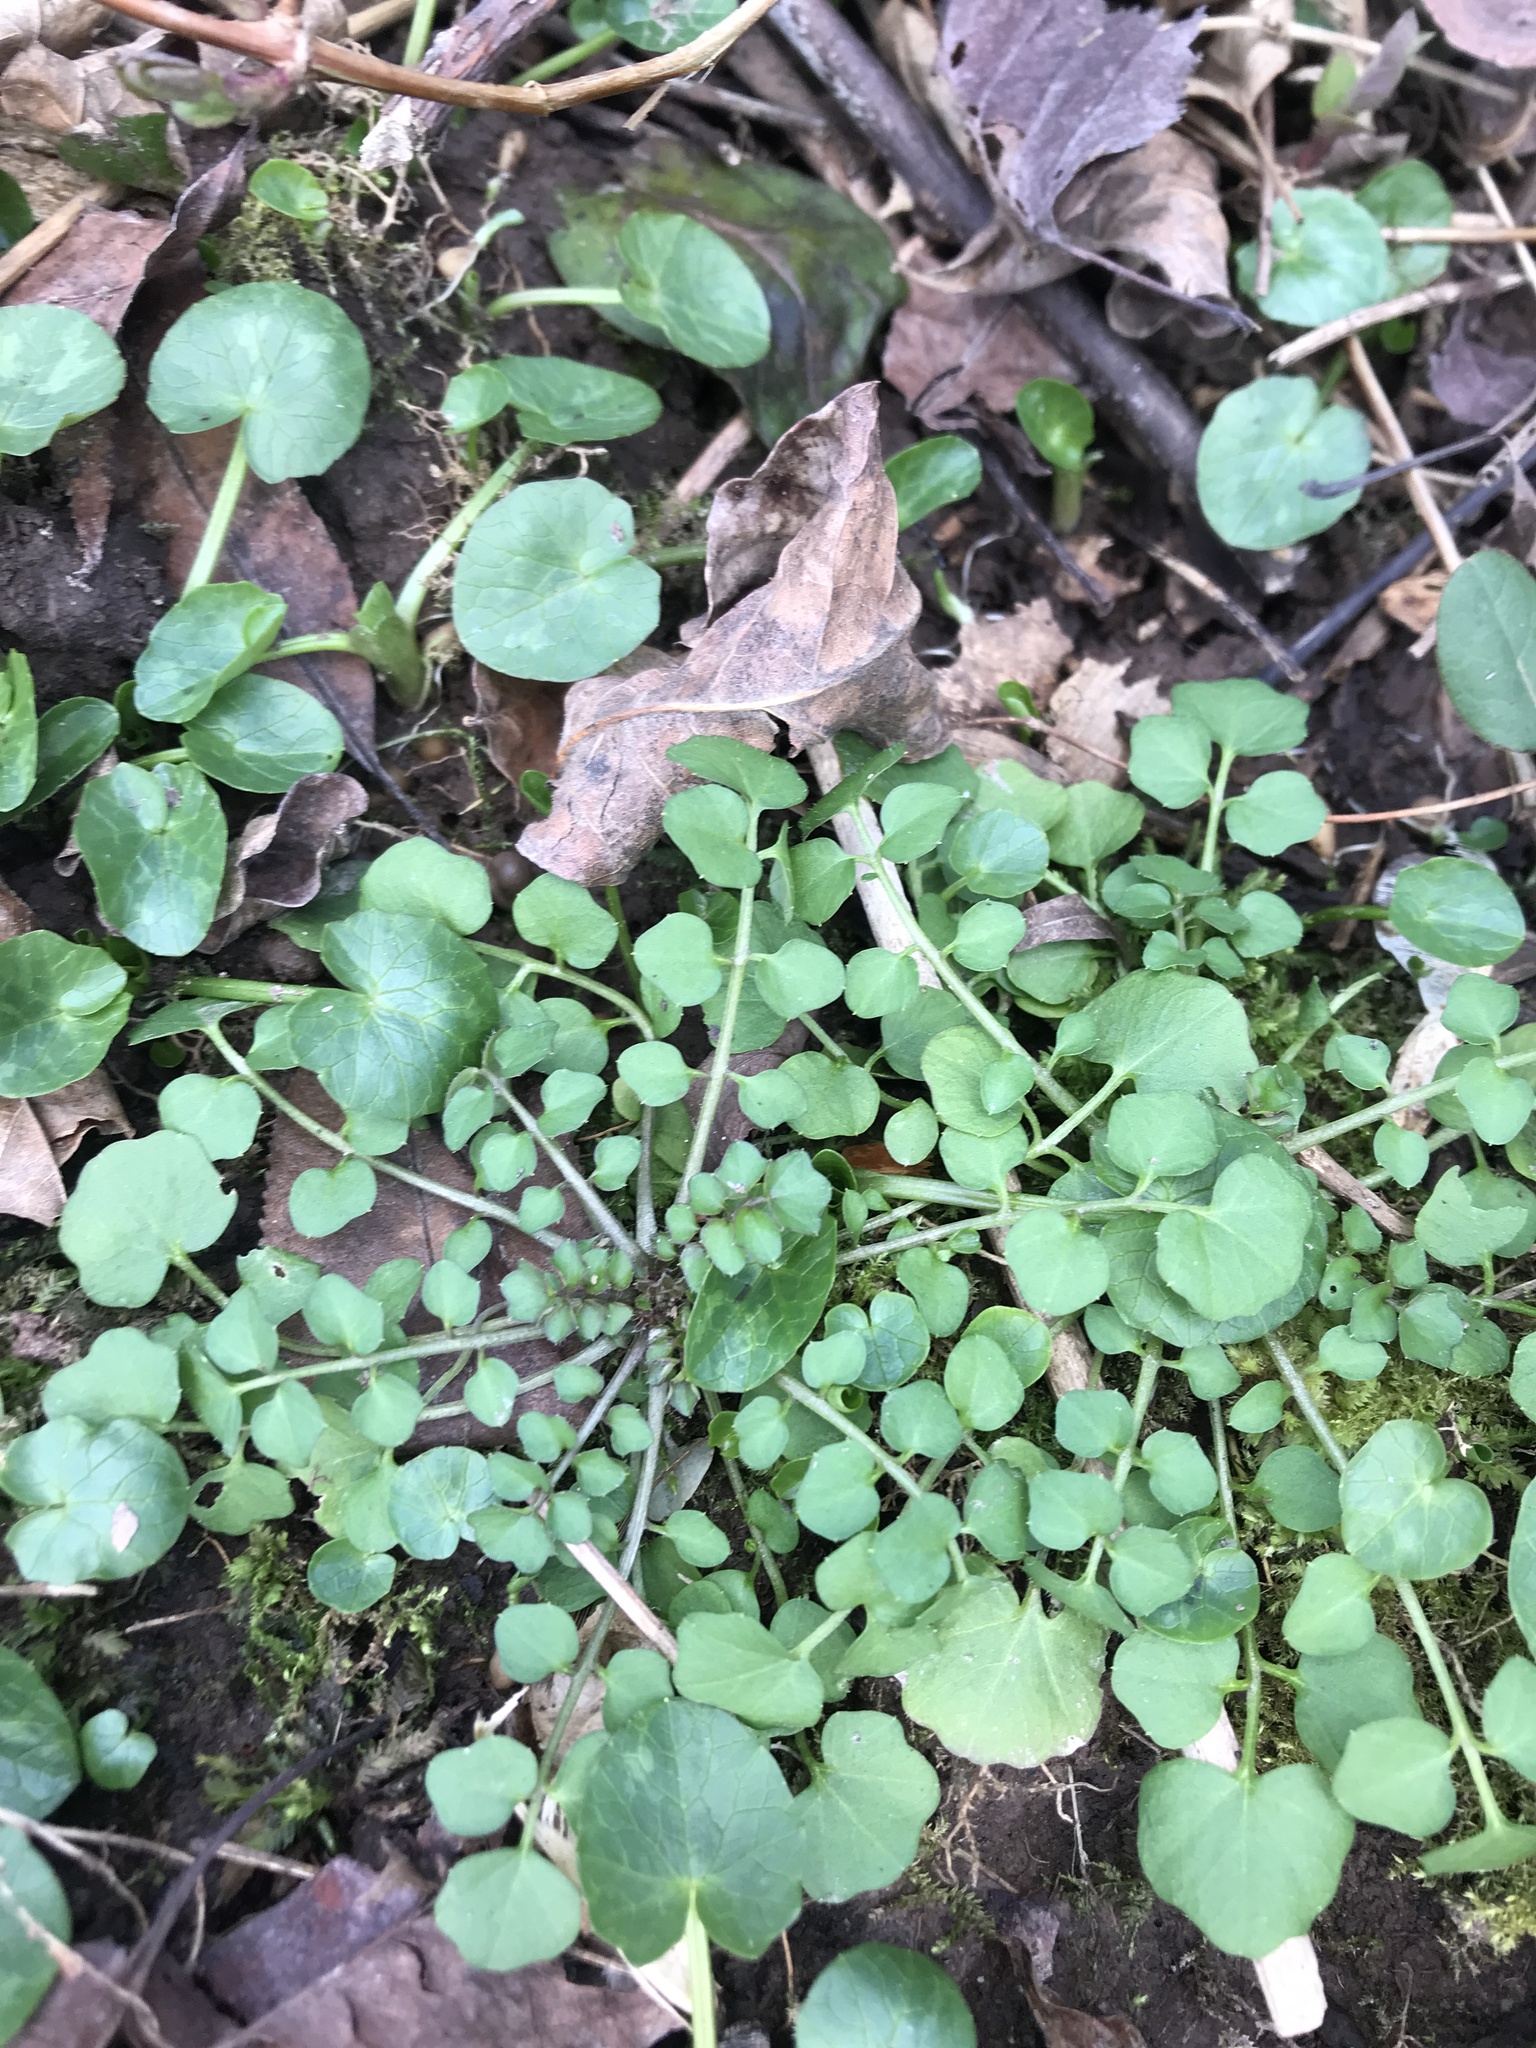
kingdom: Plantae
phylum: Tracheophyta
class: Magnoliopsida
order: Brassicales
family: Brassicaceae
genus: Cardamine
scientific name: Cardamine hirsuta
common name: Hairy bittercress
